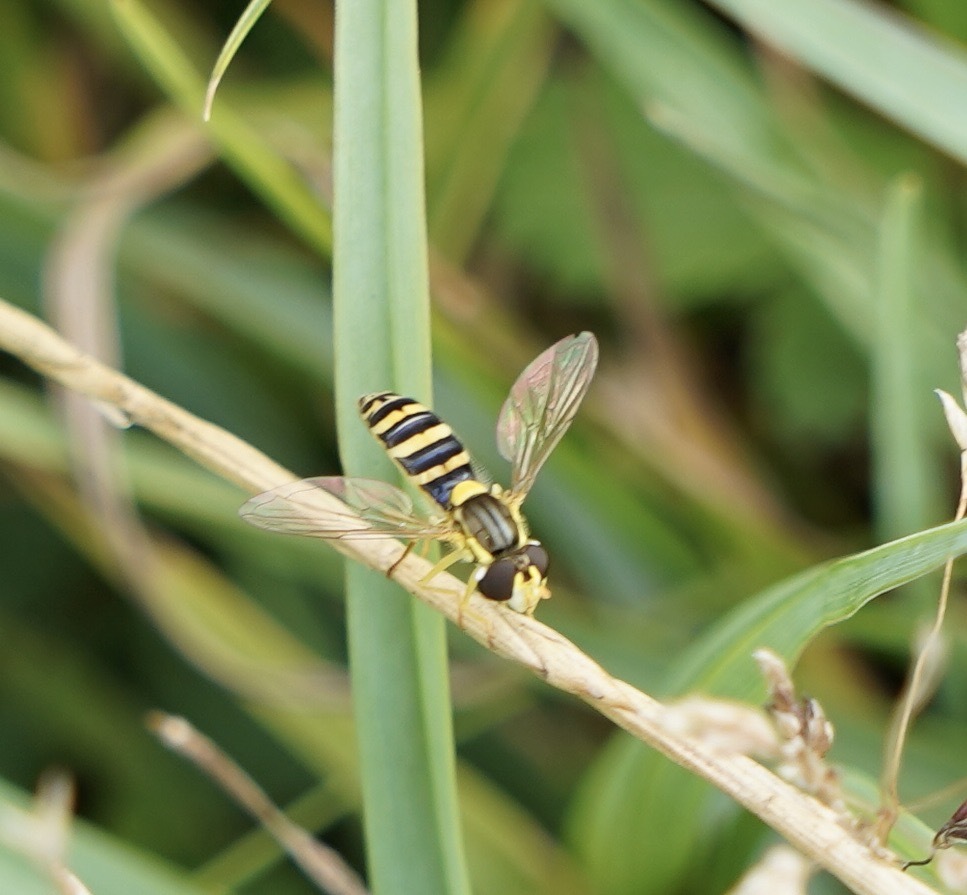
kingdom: Animalia
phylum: Arthropoda
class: Insecta
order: Diptera
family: Syrphidae
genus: Sphaerophoria
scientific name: Sphaerophoria
